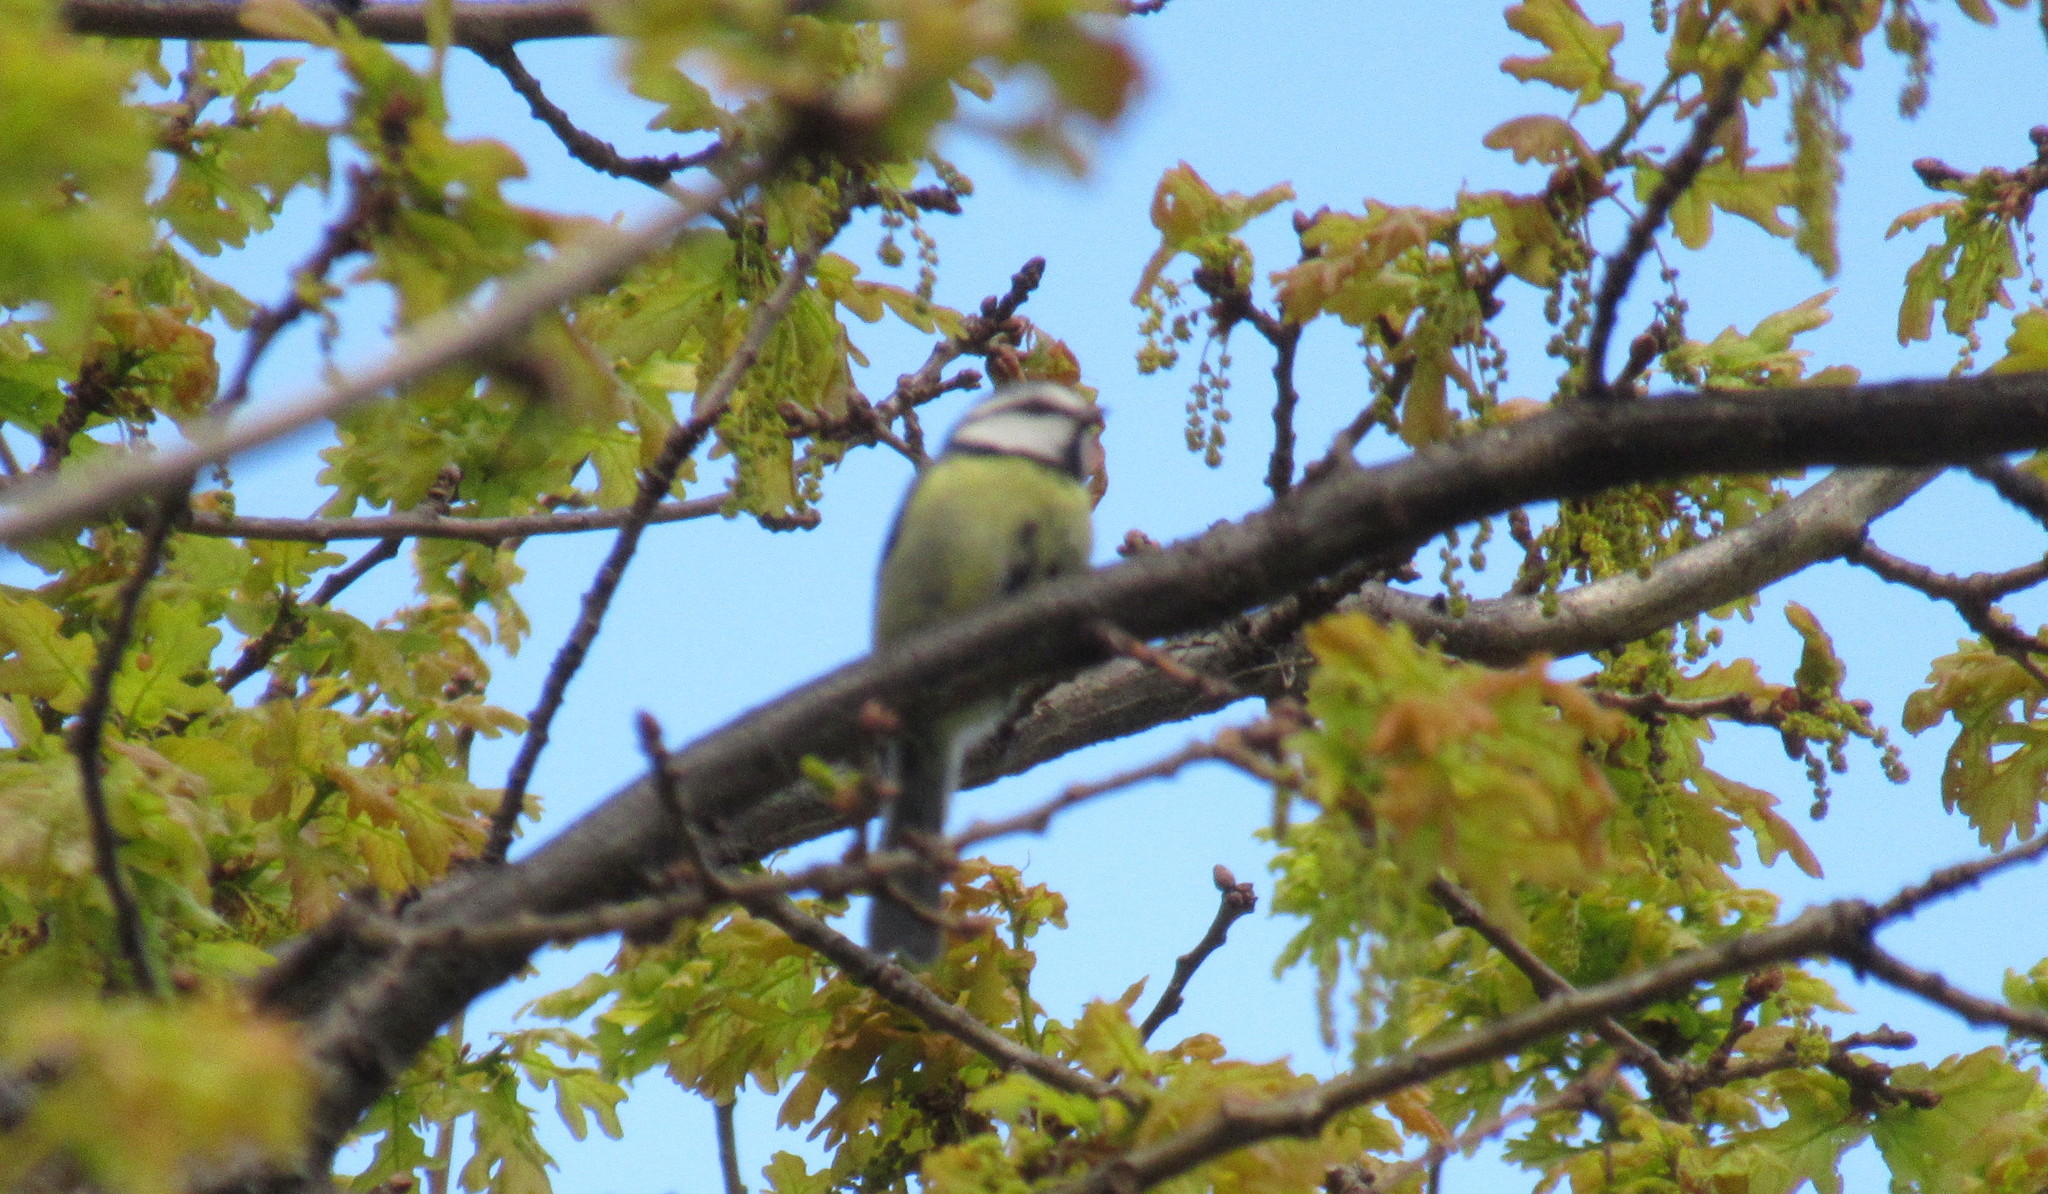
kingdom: Animalia
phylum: Chordata
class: Aves
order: Passeriformes
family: Paridae
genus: Cyanistes
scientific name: Cyanistes caeruleus
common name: Eurasian blue tit
